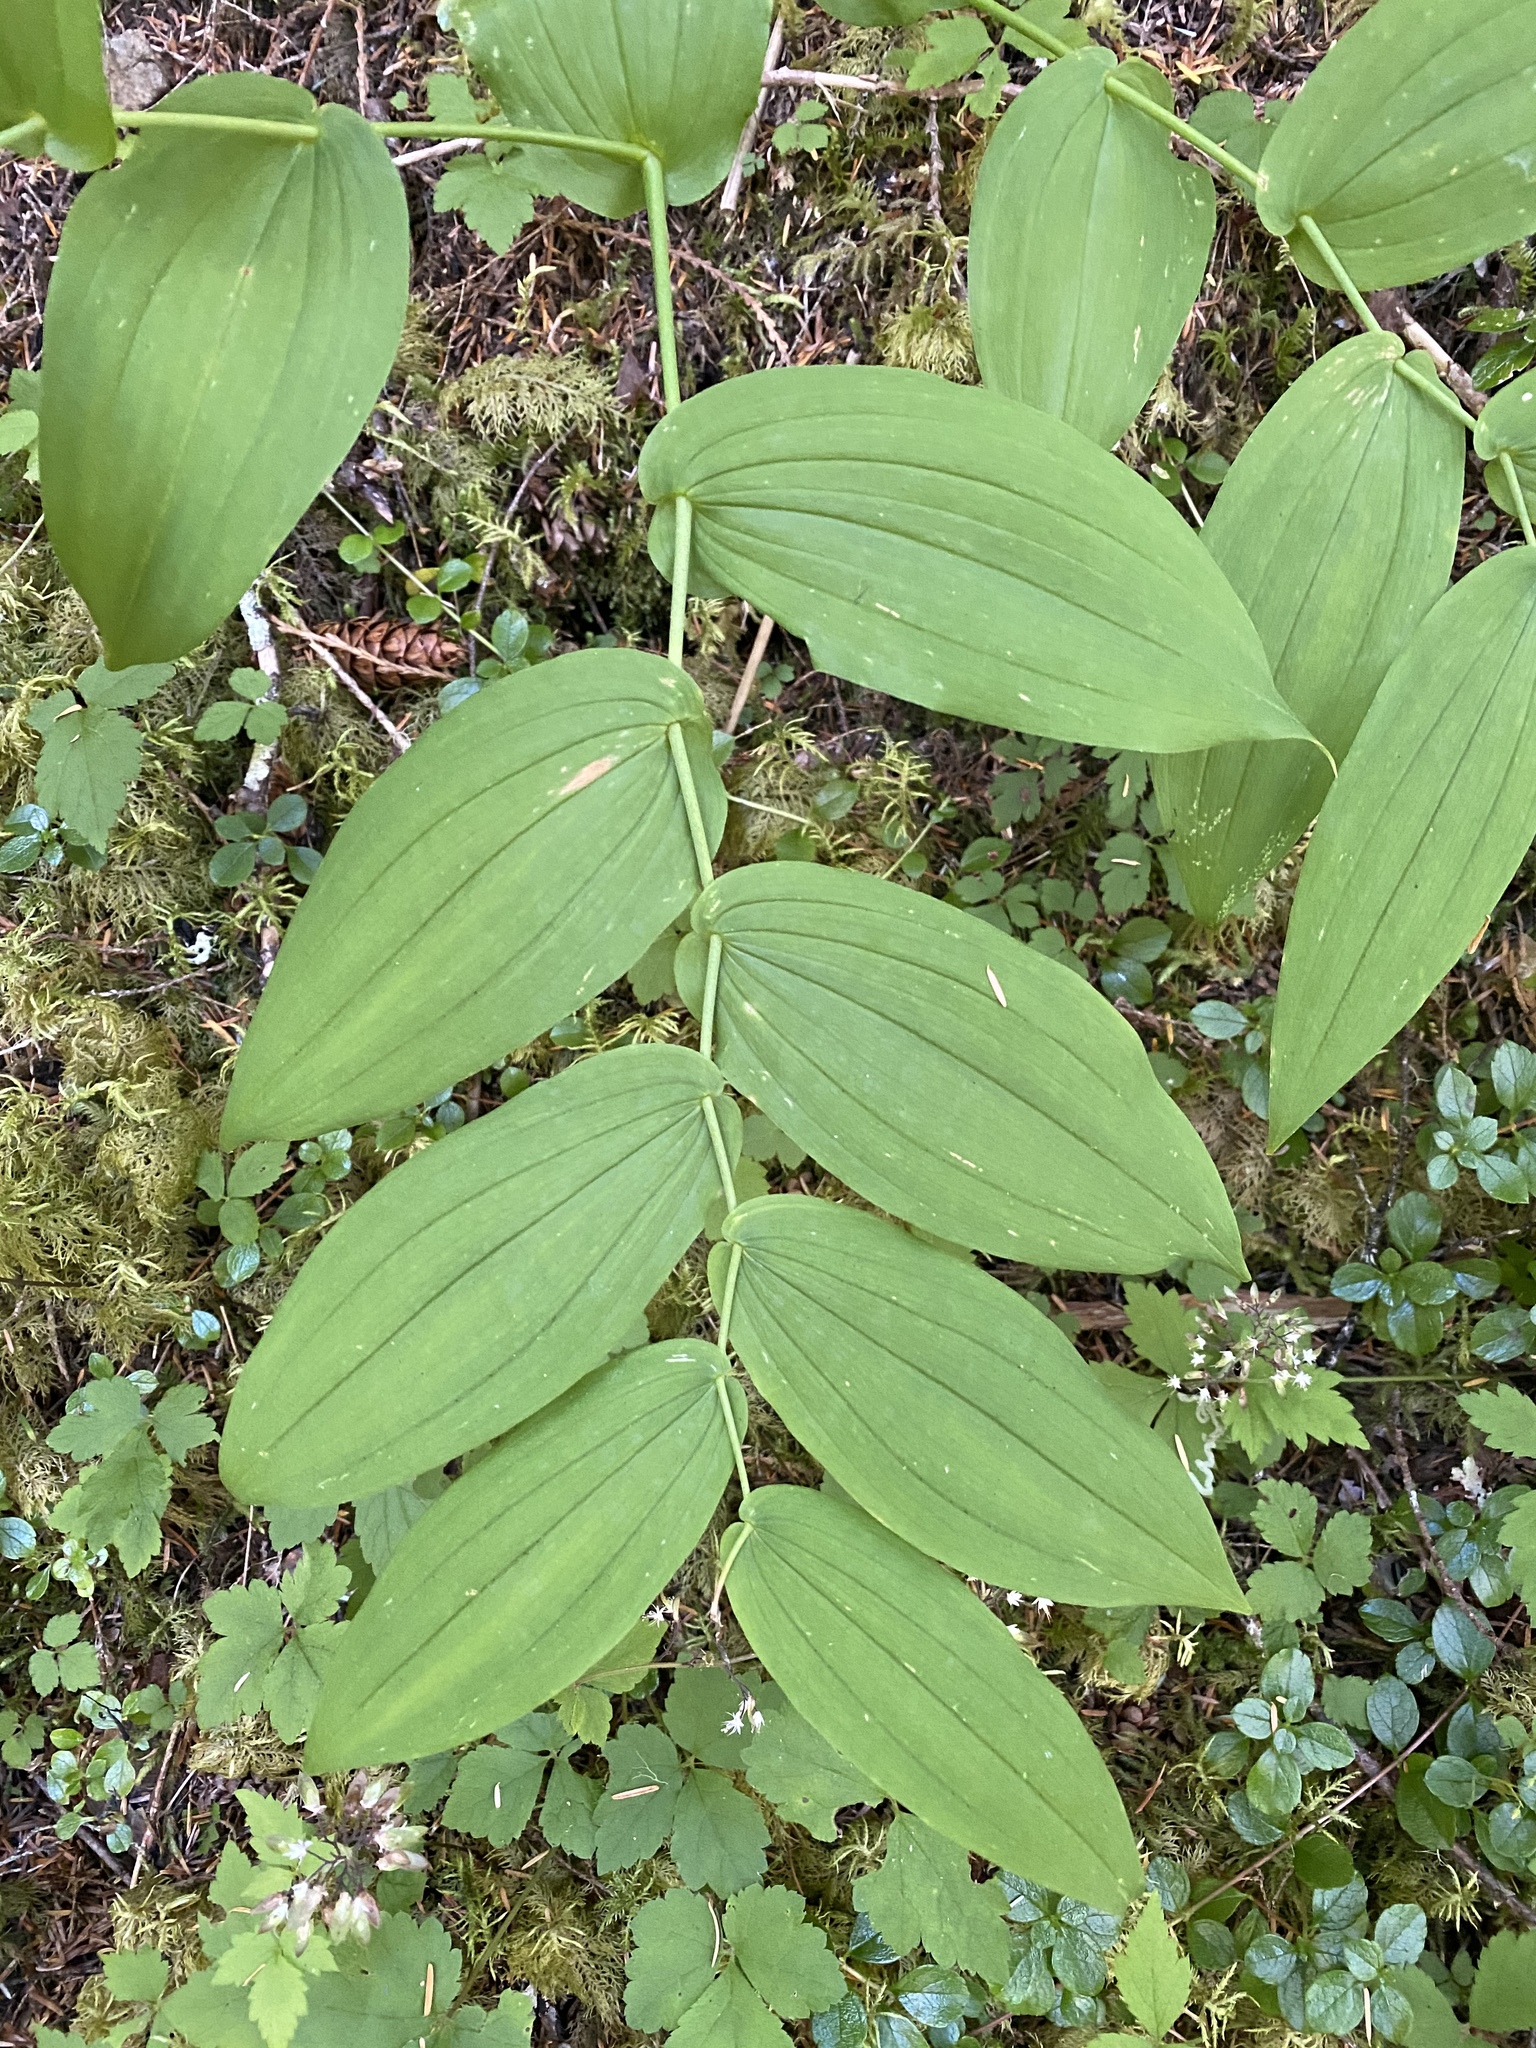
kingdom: Plantae
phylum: Tracheophyta
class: Liliopsida
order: Liliales
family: Liliaceae
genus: Streptopus
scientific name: Streptopus amplexifolius
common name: Clasp twisted stalk
